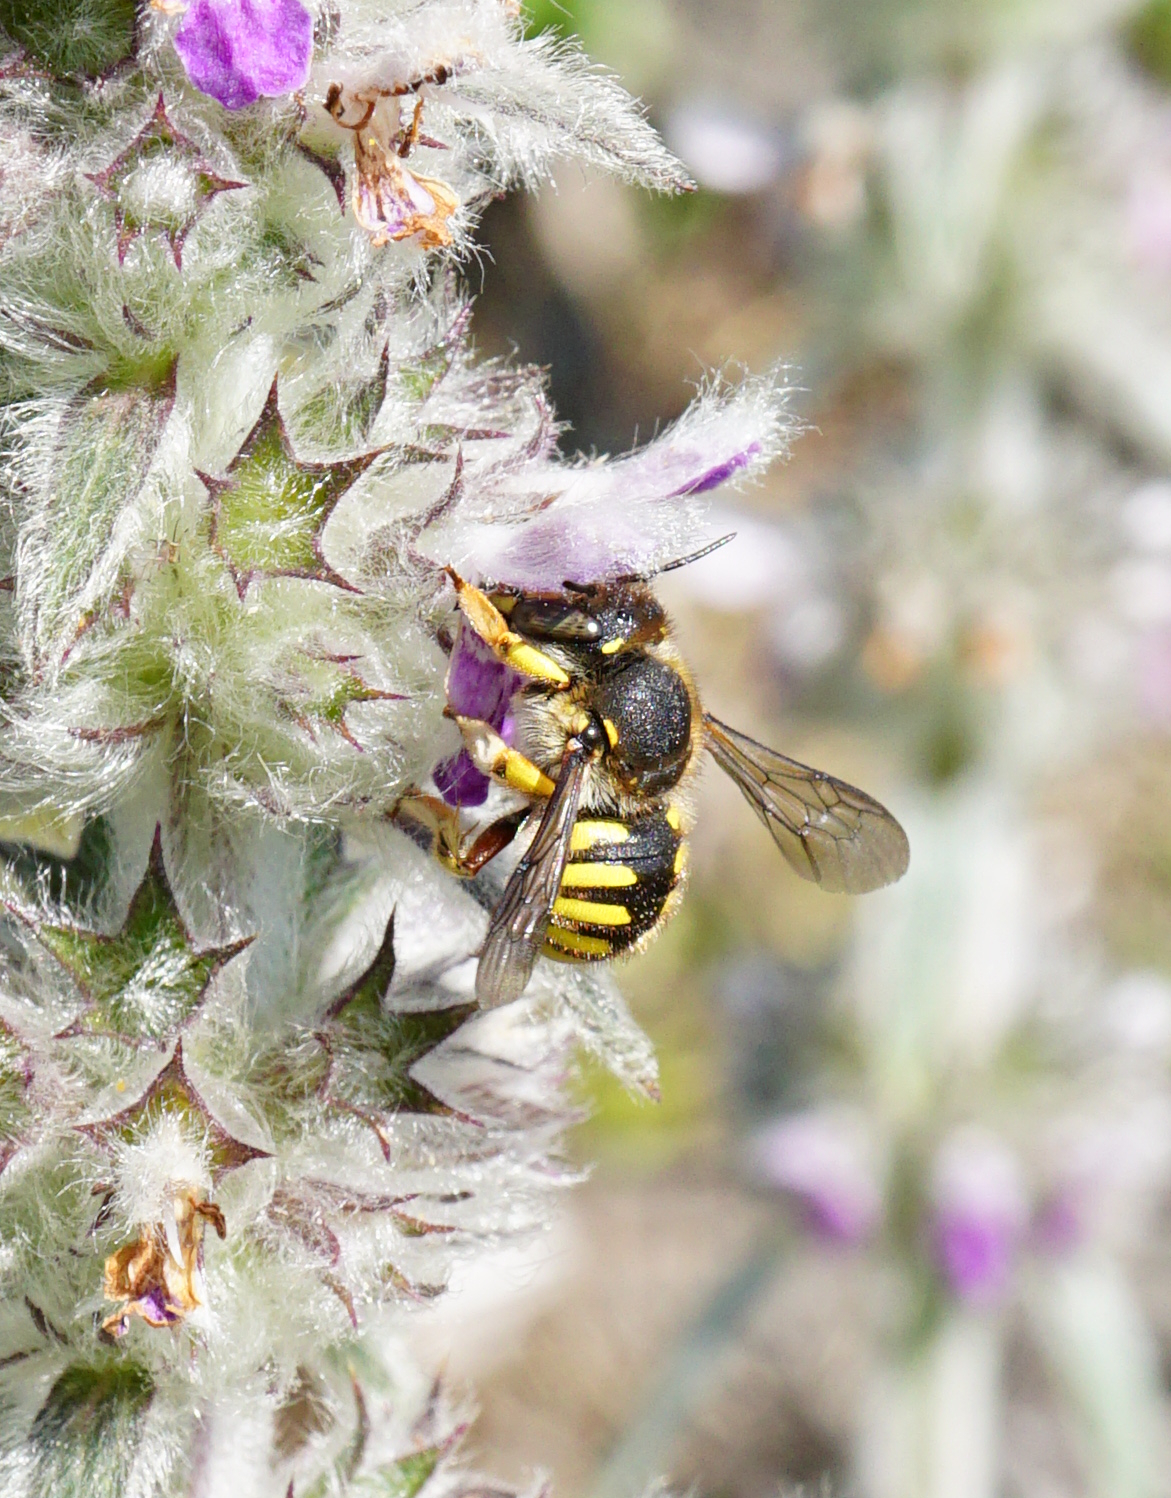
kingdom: Animalia
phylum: Arthropoda
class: Insecta
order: Hymenoptera
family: Megachilidae
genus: Anthidium
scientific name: Anthidium manicatum
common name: Wool carder bee
